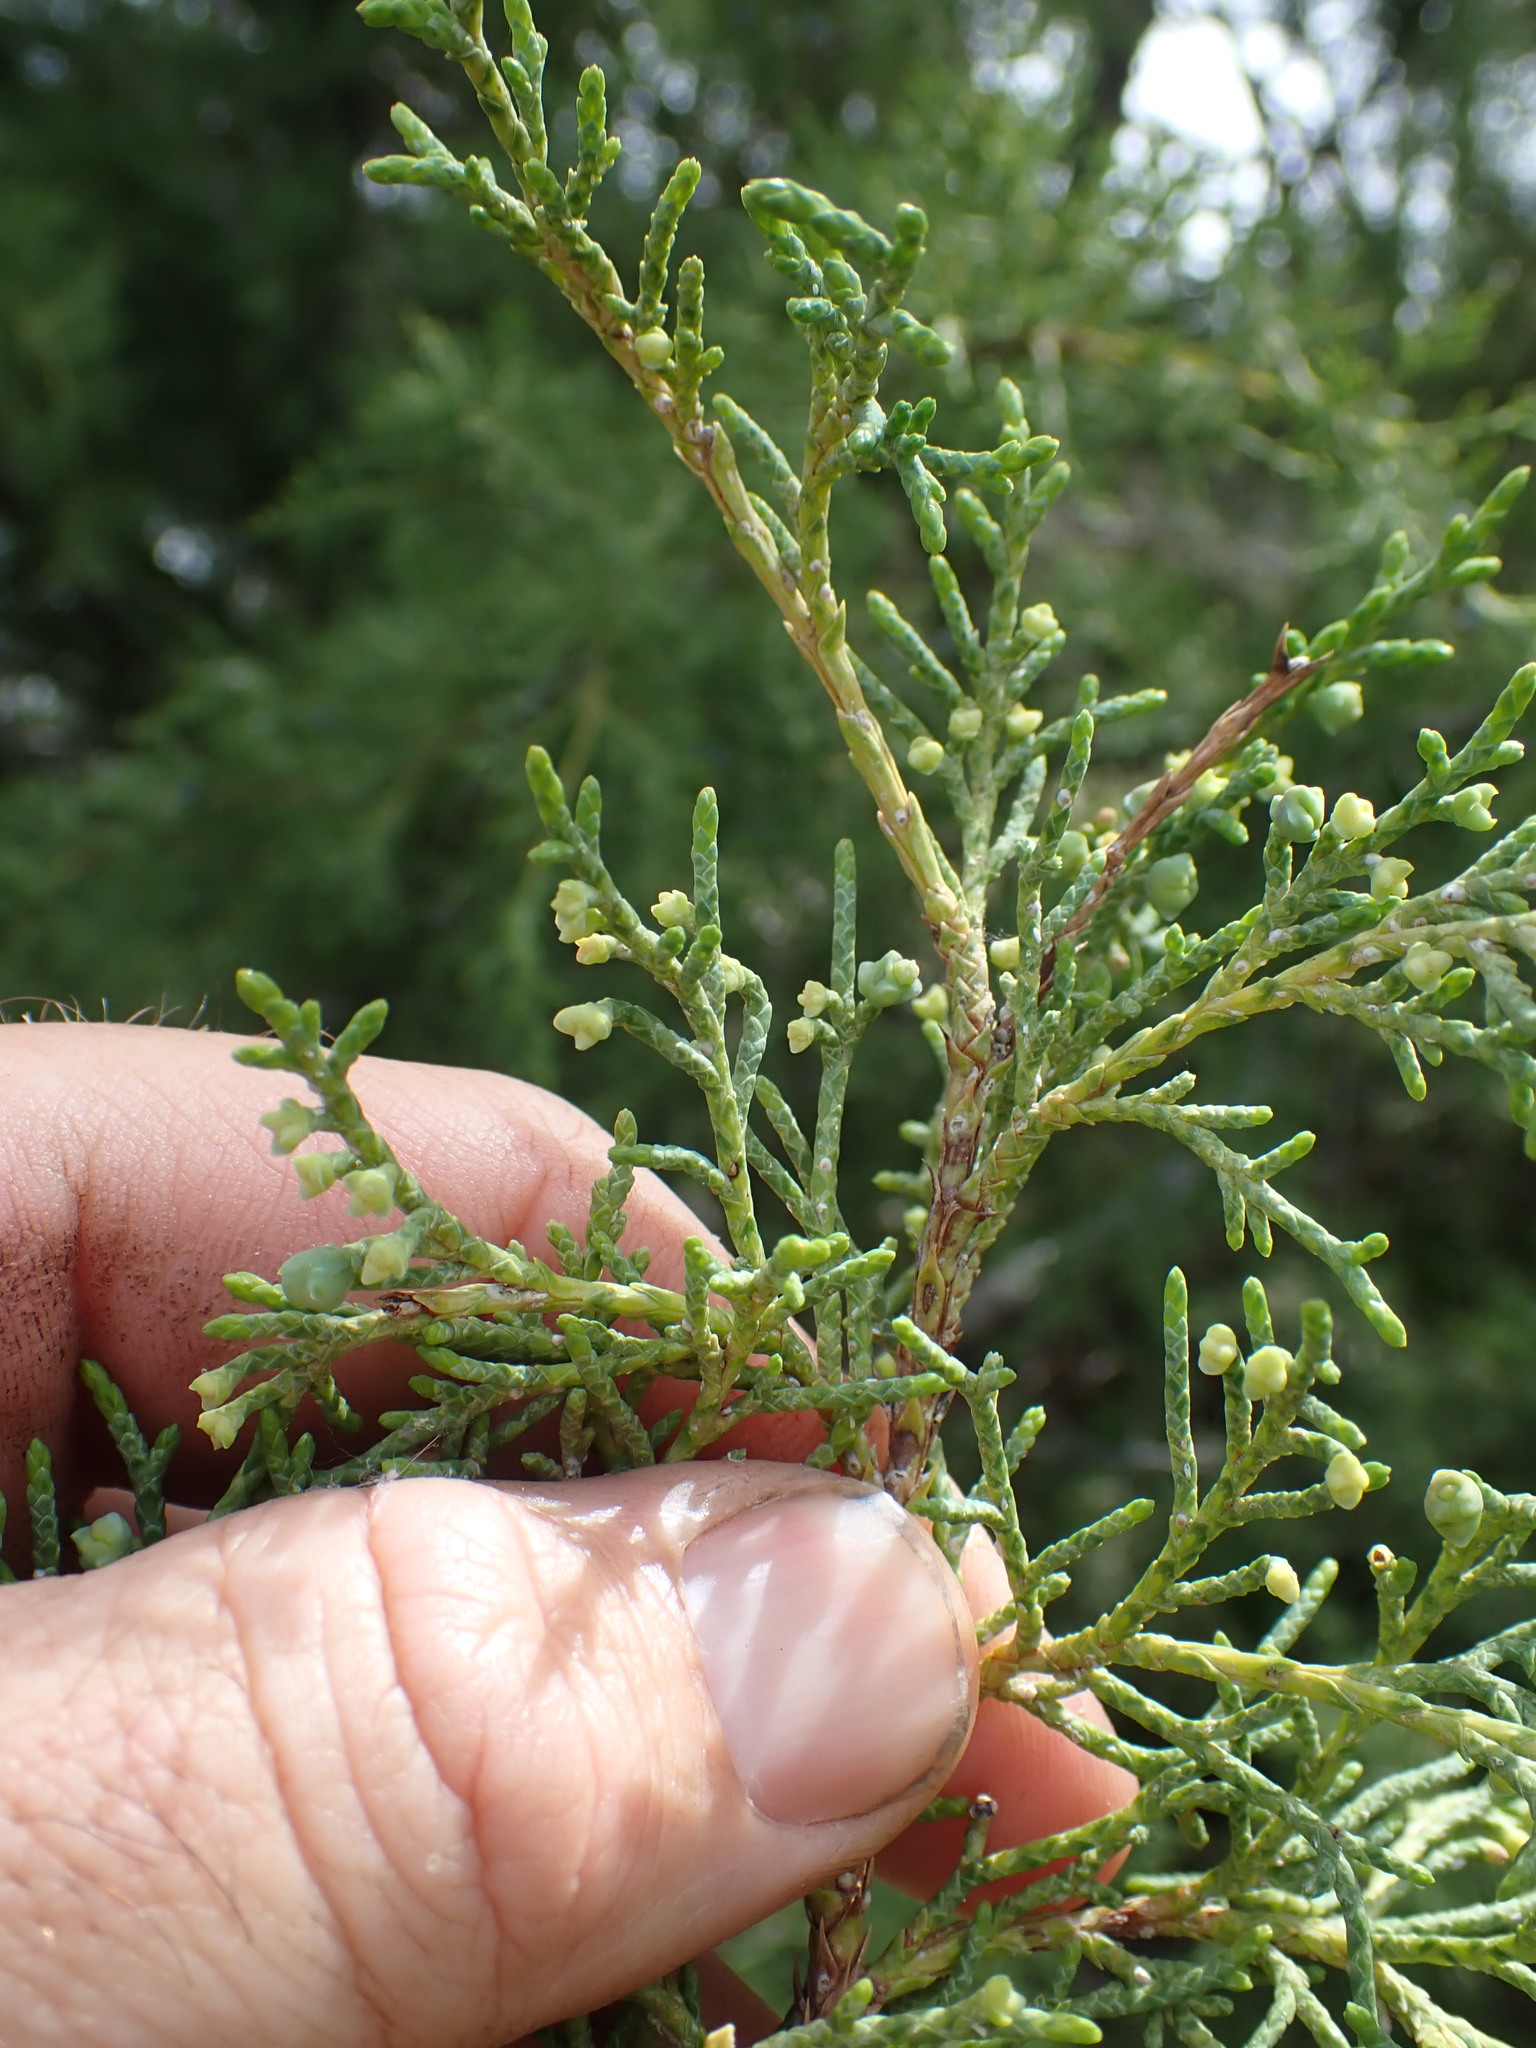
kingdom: Plantae
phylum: Tracheophyta
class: Pinopsida
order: Pinales
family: Cupressaceae
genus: Juniperus
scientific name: Juniperus scopulorum
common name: Rocky mountain juniper
